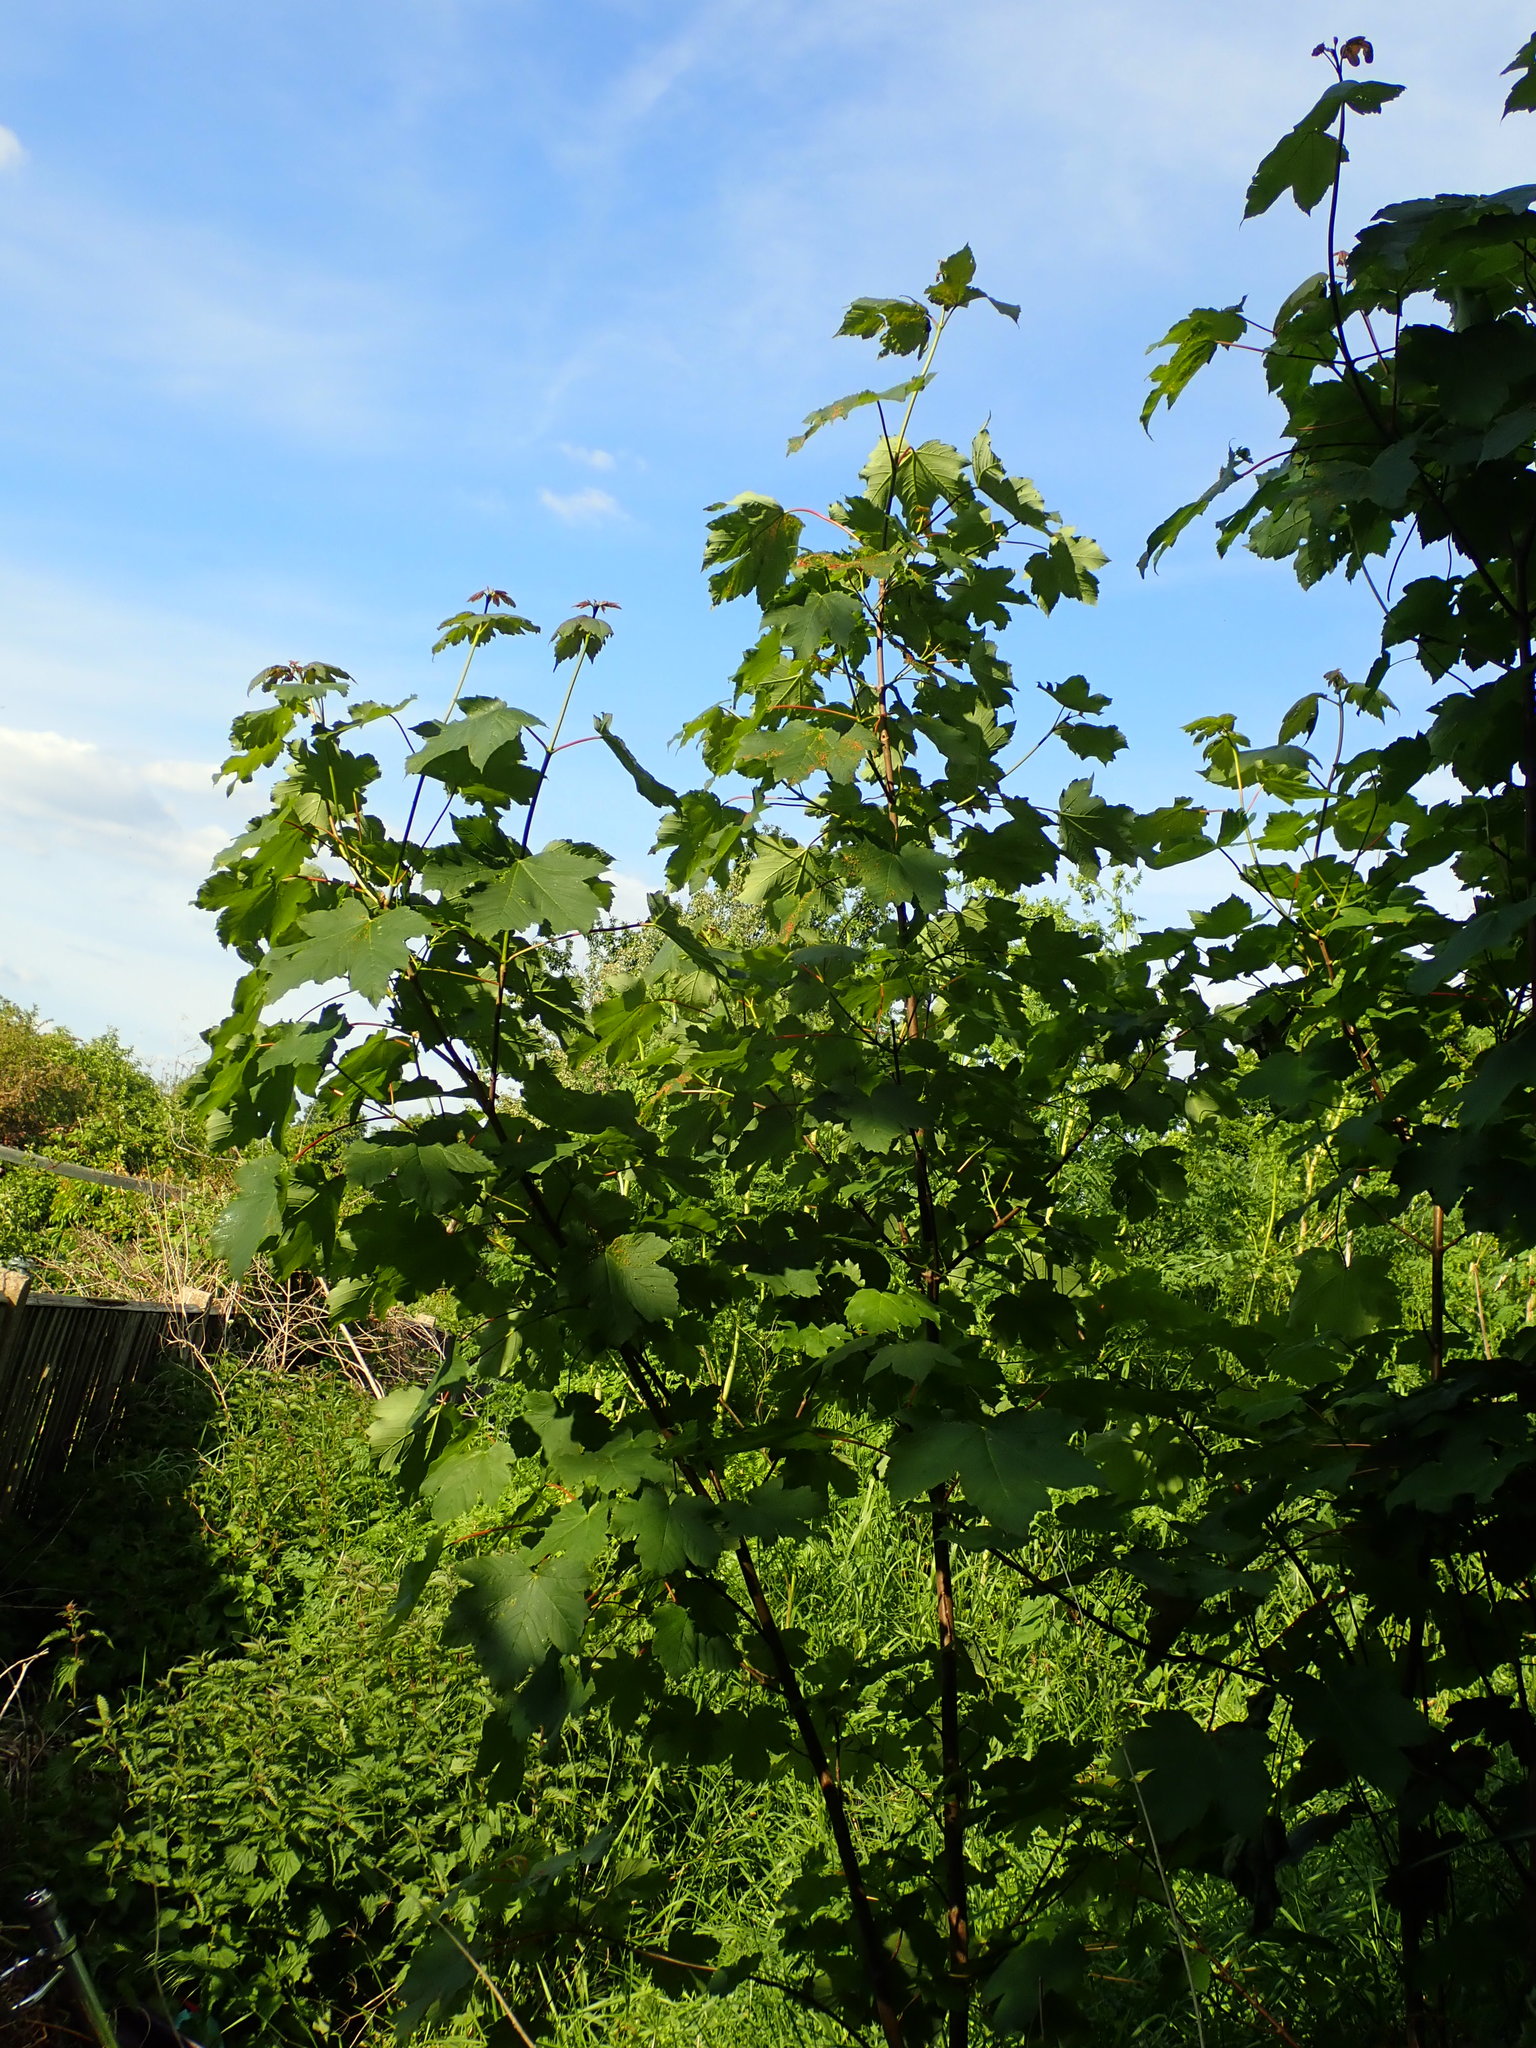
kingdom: Plantae
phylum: Tracheophyta
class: Magnoliopsida
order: Sapindales
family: Sapindaceae
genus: Acer
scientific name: Acer pseudoplatanus
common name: Sycamore
